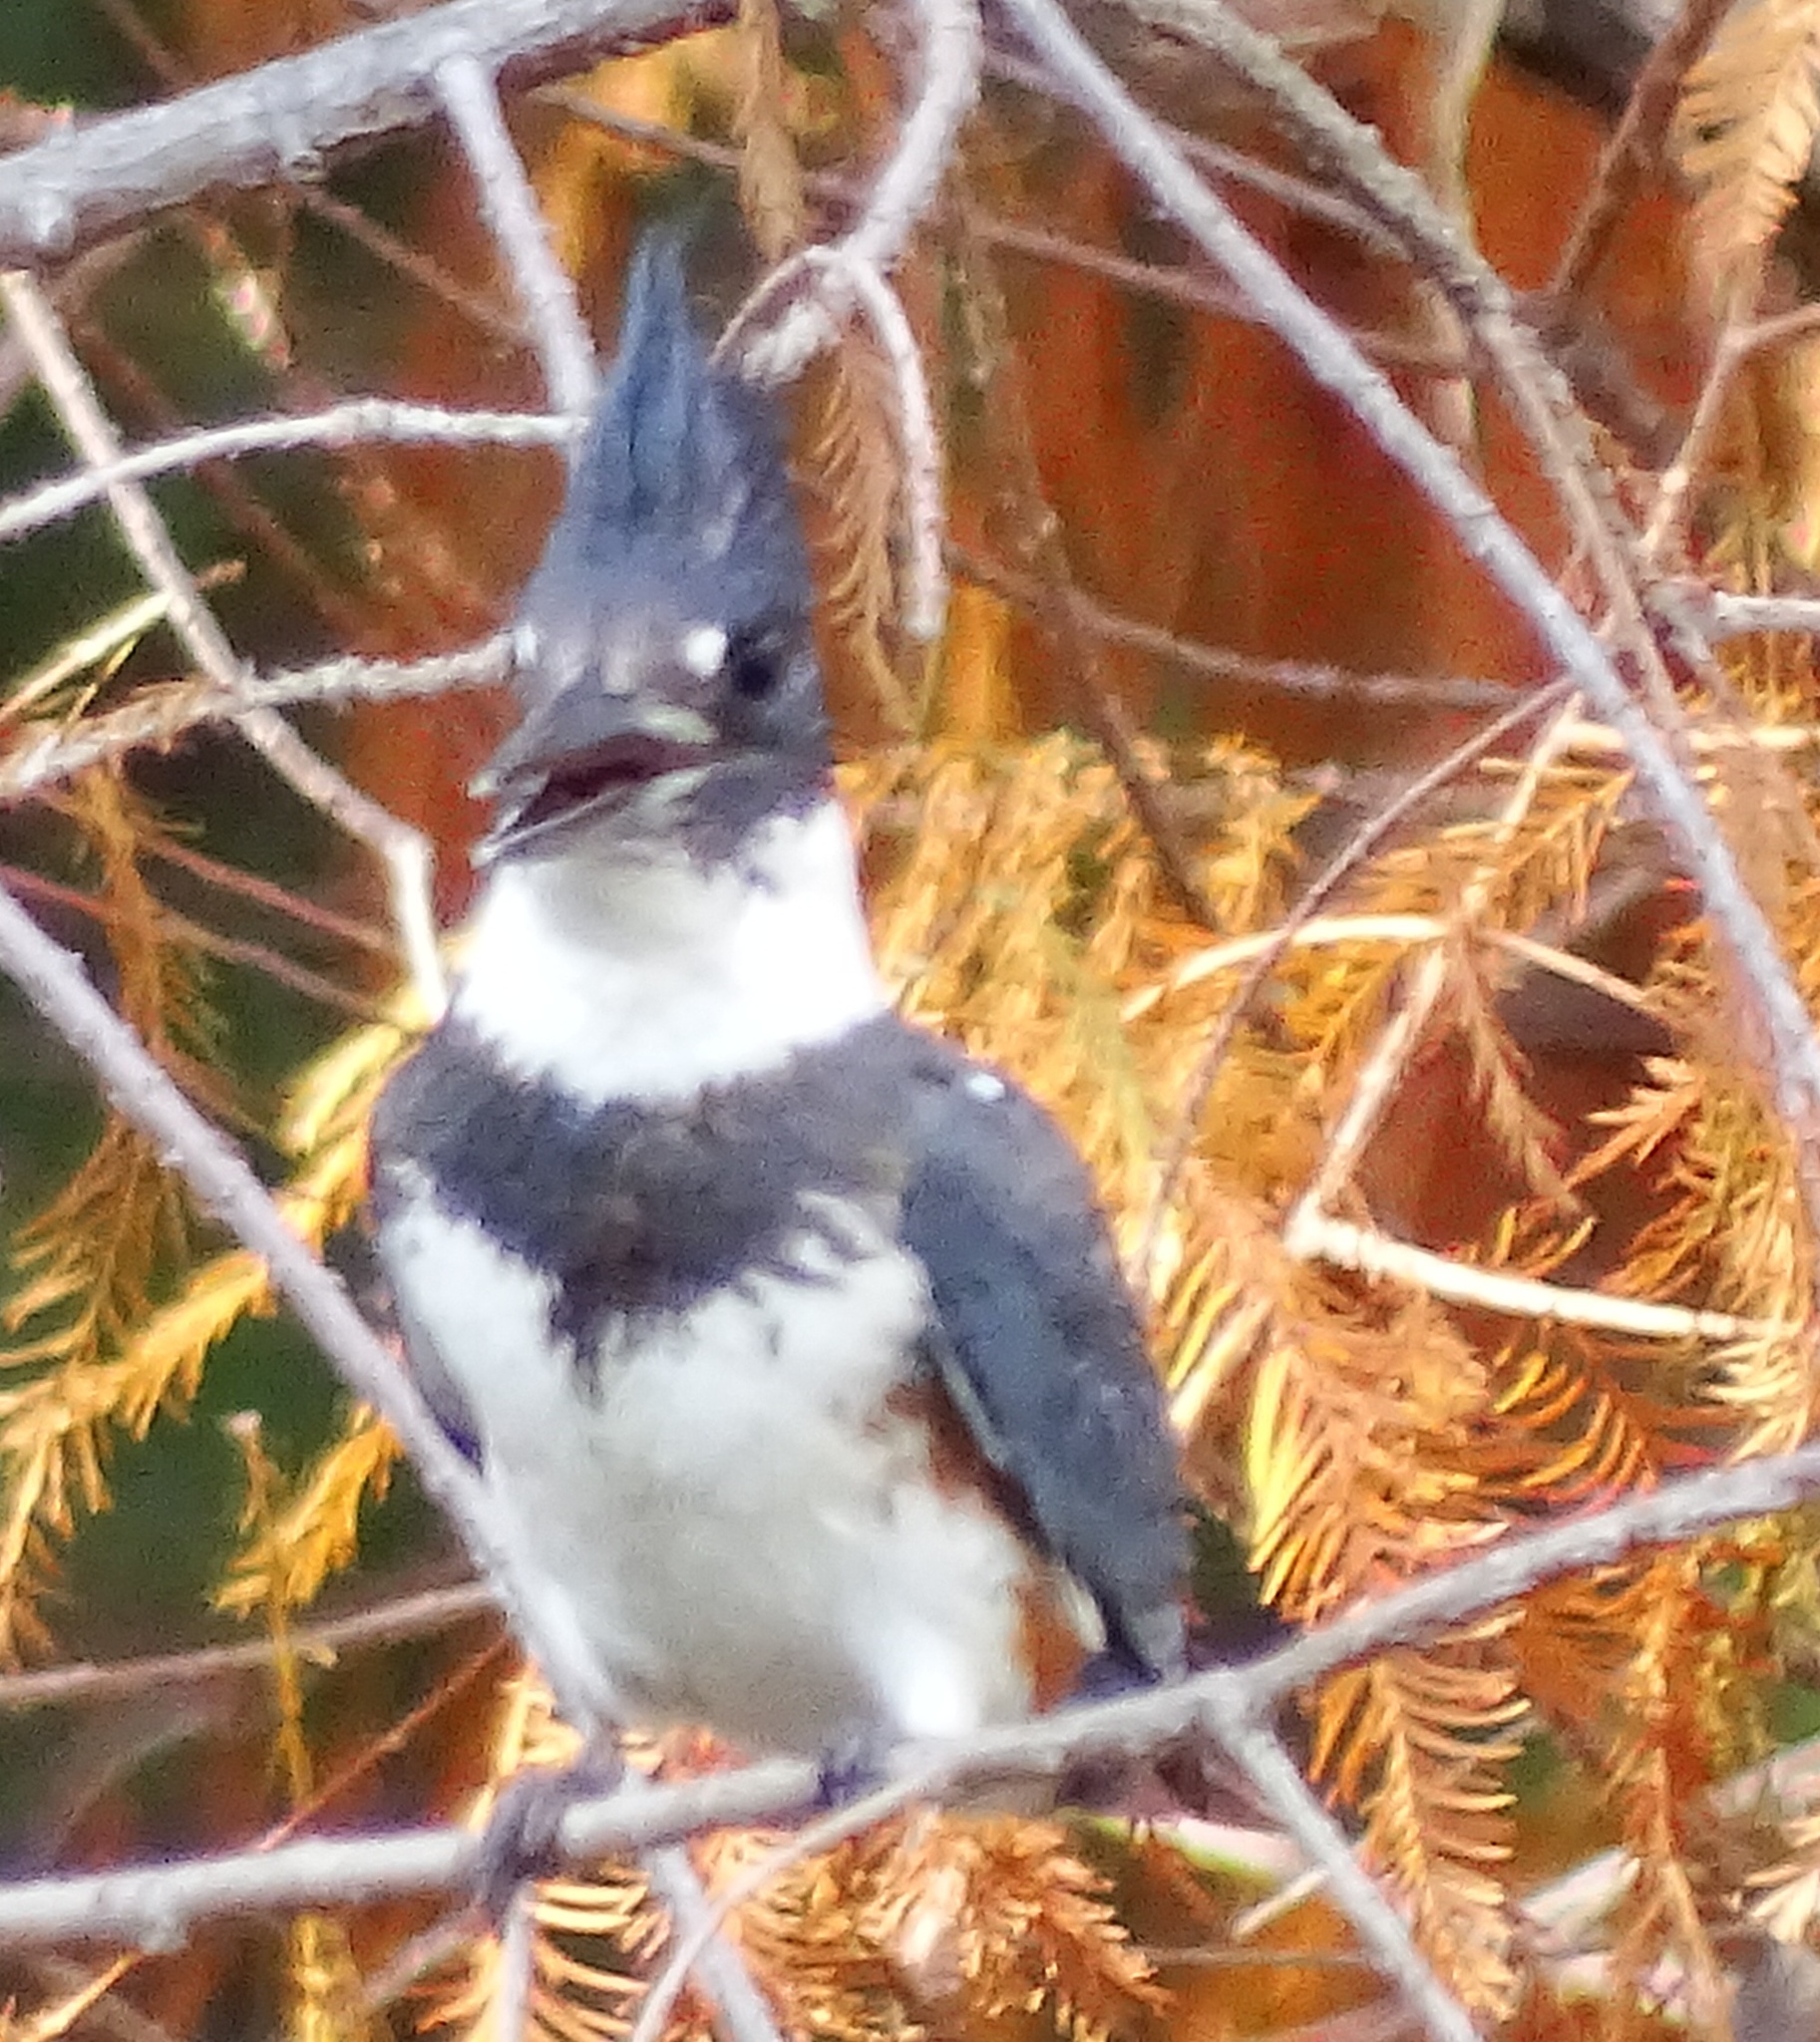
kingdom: Animalia
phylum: Chordata
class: Aves
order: Coraciiformes
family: Alcedinidae
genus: Megaceryle
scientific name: Megaceryle alcyon
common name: Belted kingfisher
